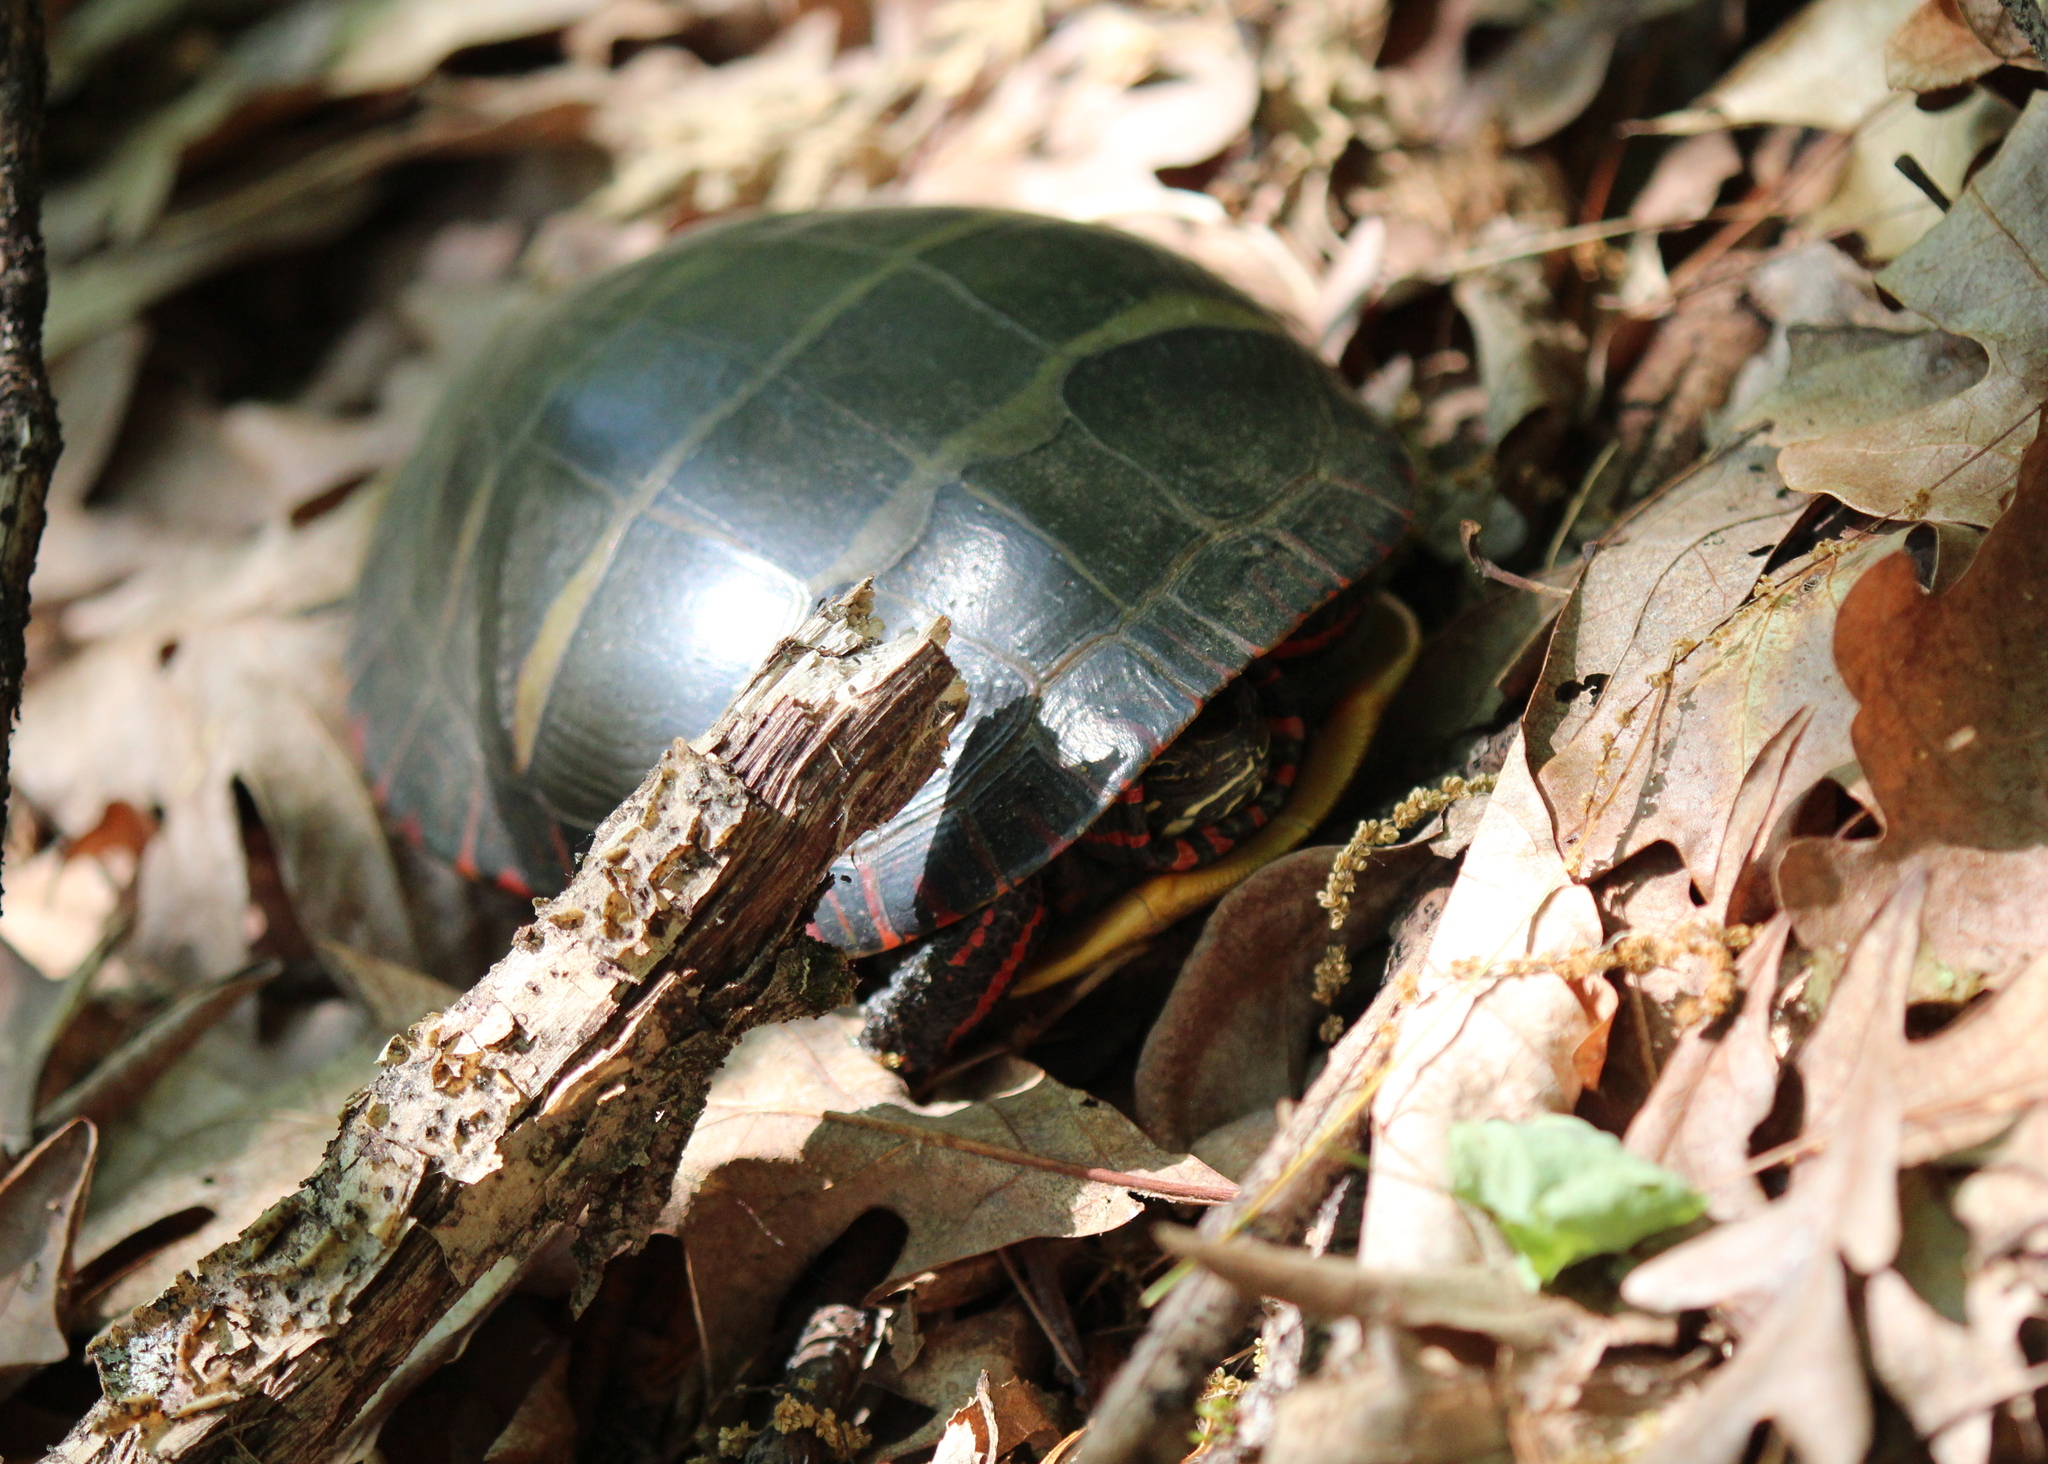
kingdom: Animalia
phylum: Chordata
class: Testudines
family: Emydidae
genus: Chrysemys
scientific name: Chrysemys picta
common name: Painted turtle
